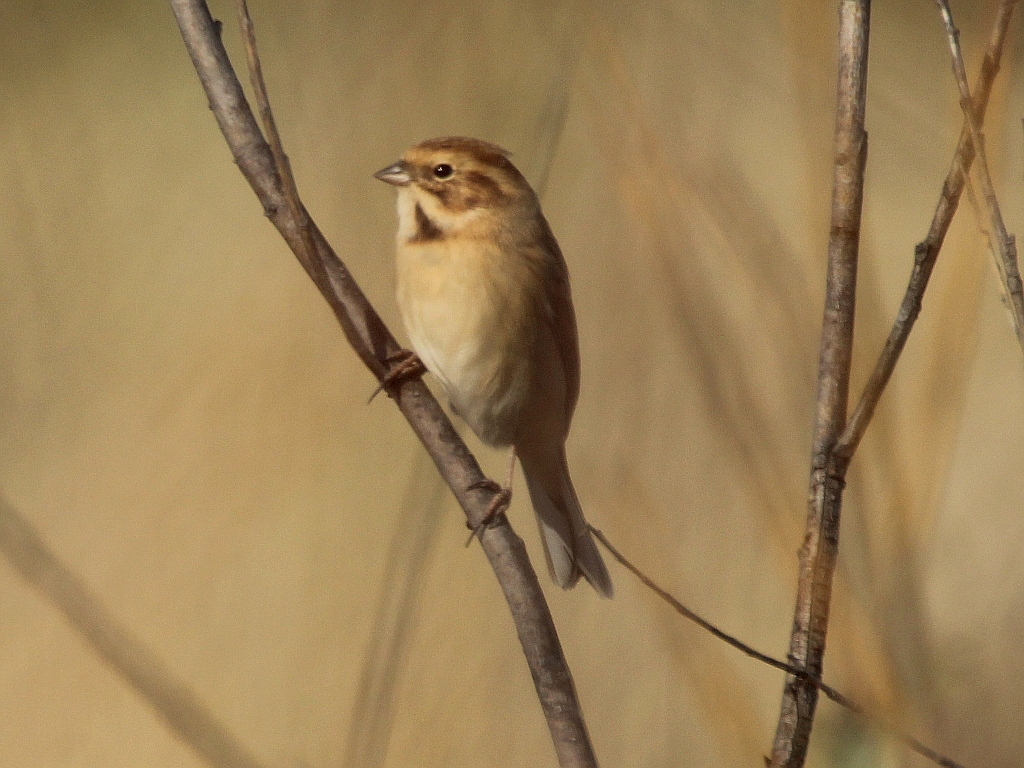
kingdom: Animalia
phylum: Chordata
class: Aves
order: Passeriformes
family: Emberizidae
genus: Emberiza
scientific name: Emberiza pallasi
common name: Pallas's reed bunting
